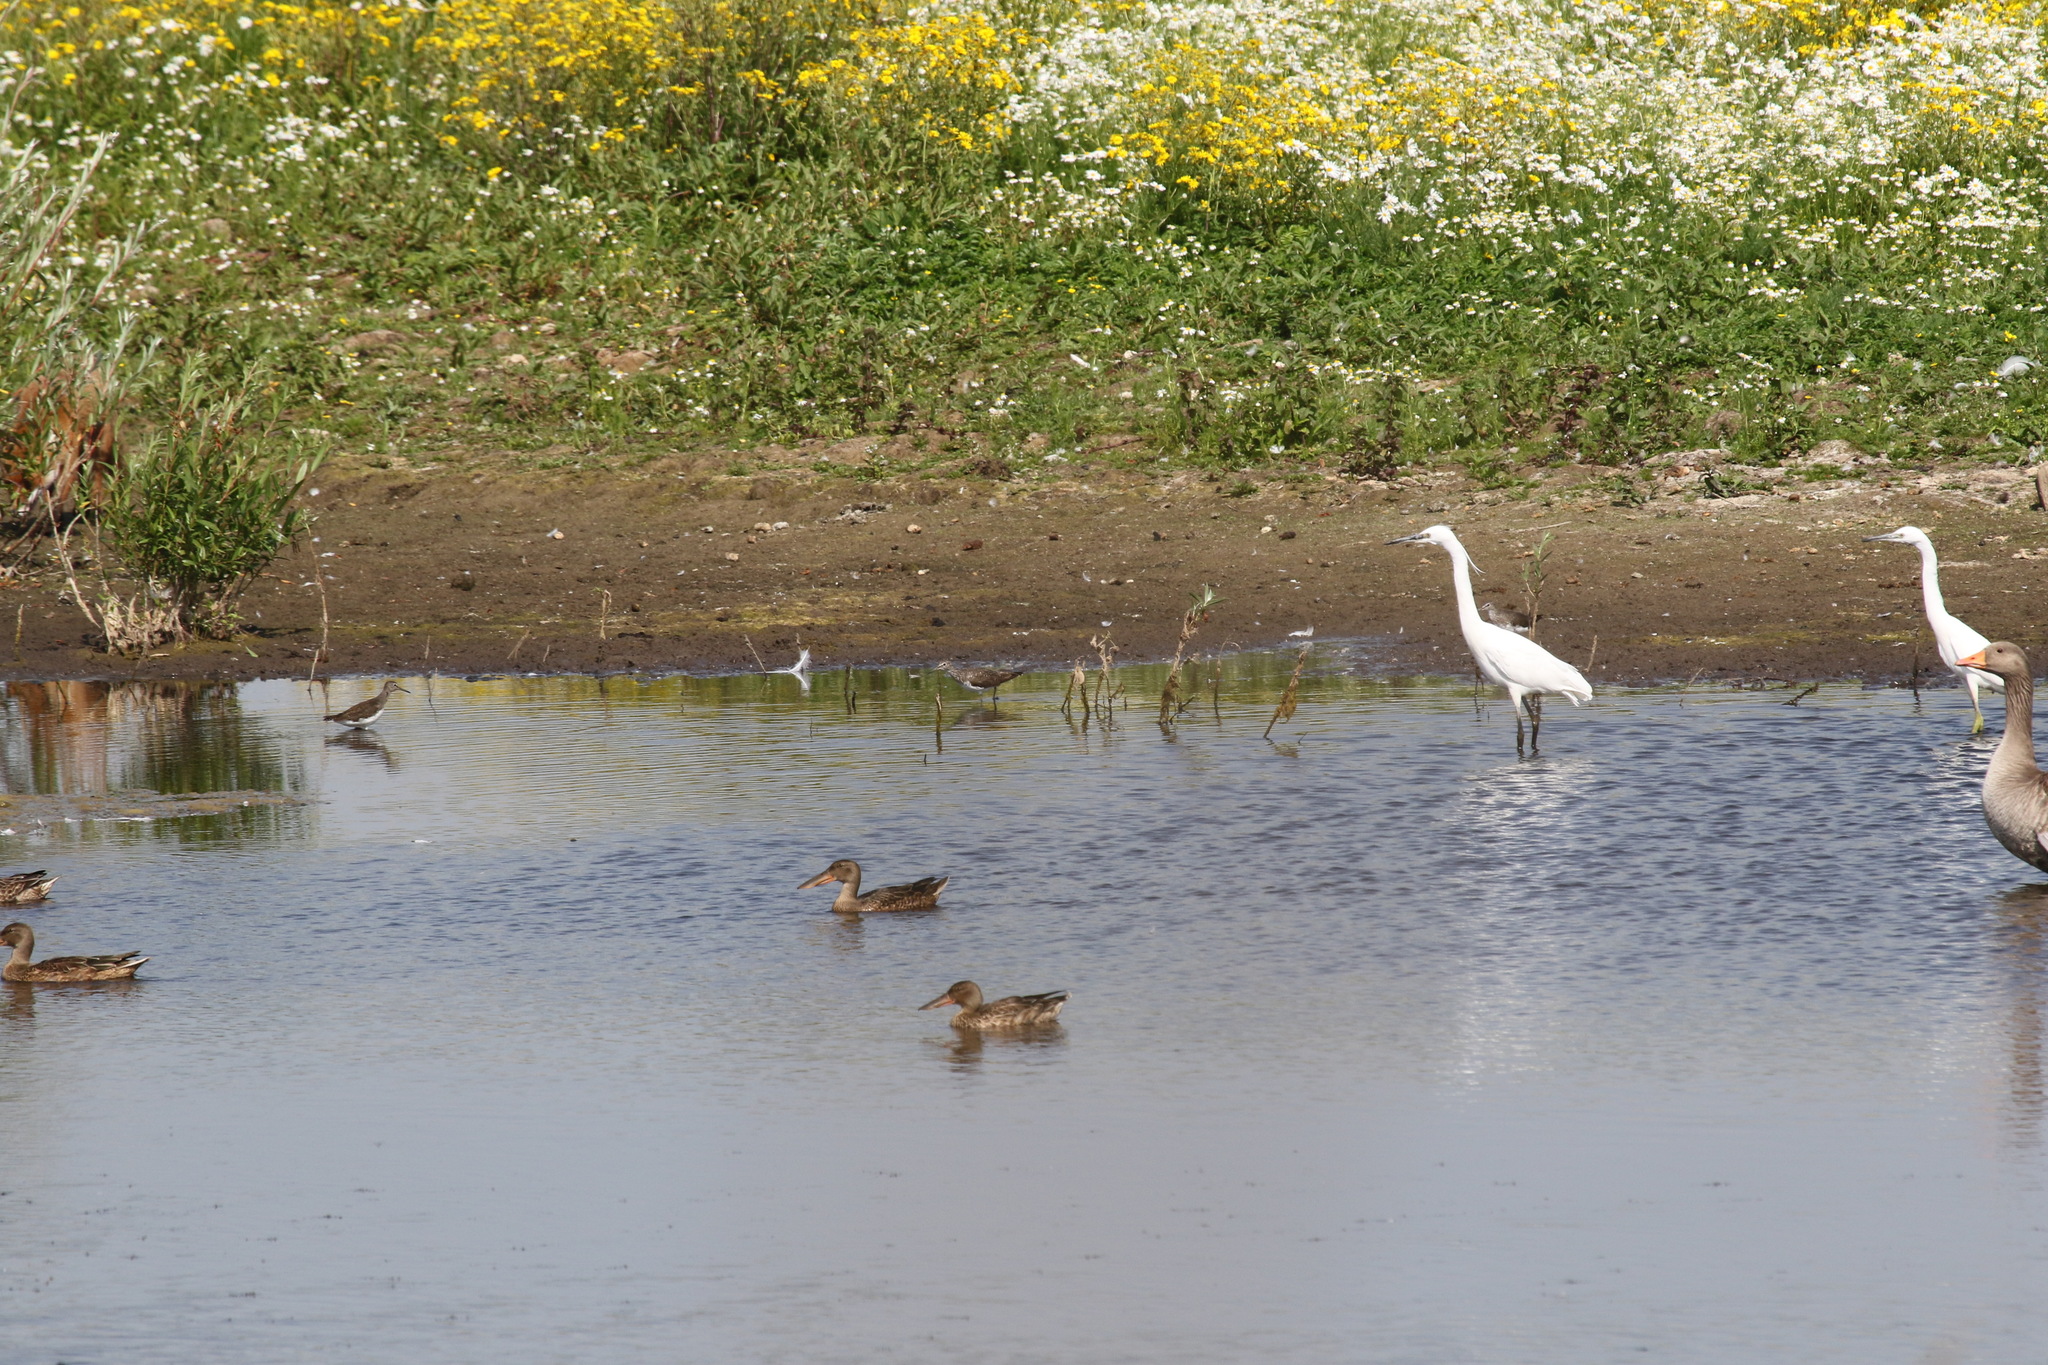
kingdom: Animalia
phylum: Chordata
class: Aves
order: Anseriformes
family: Anatidae
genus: Spatula
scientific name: Spatula clypeata
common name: Northern shoveler
